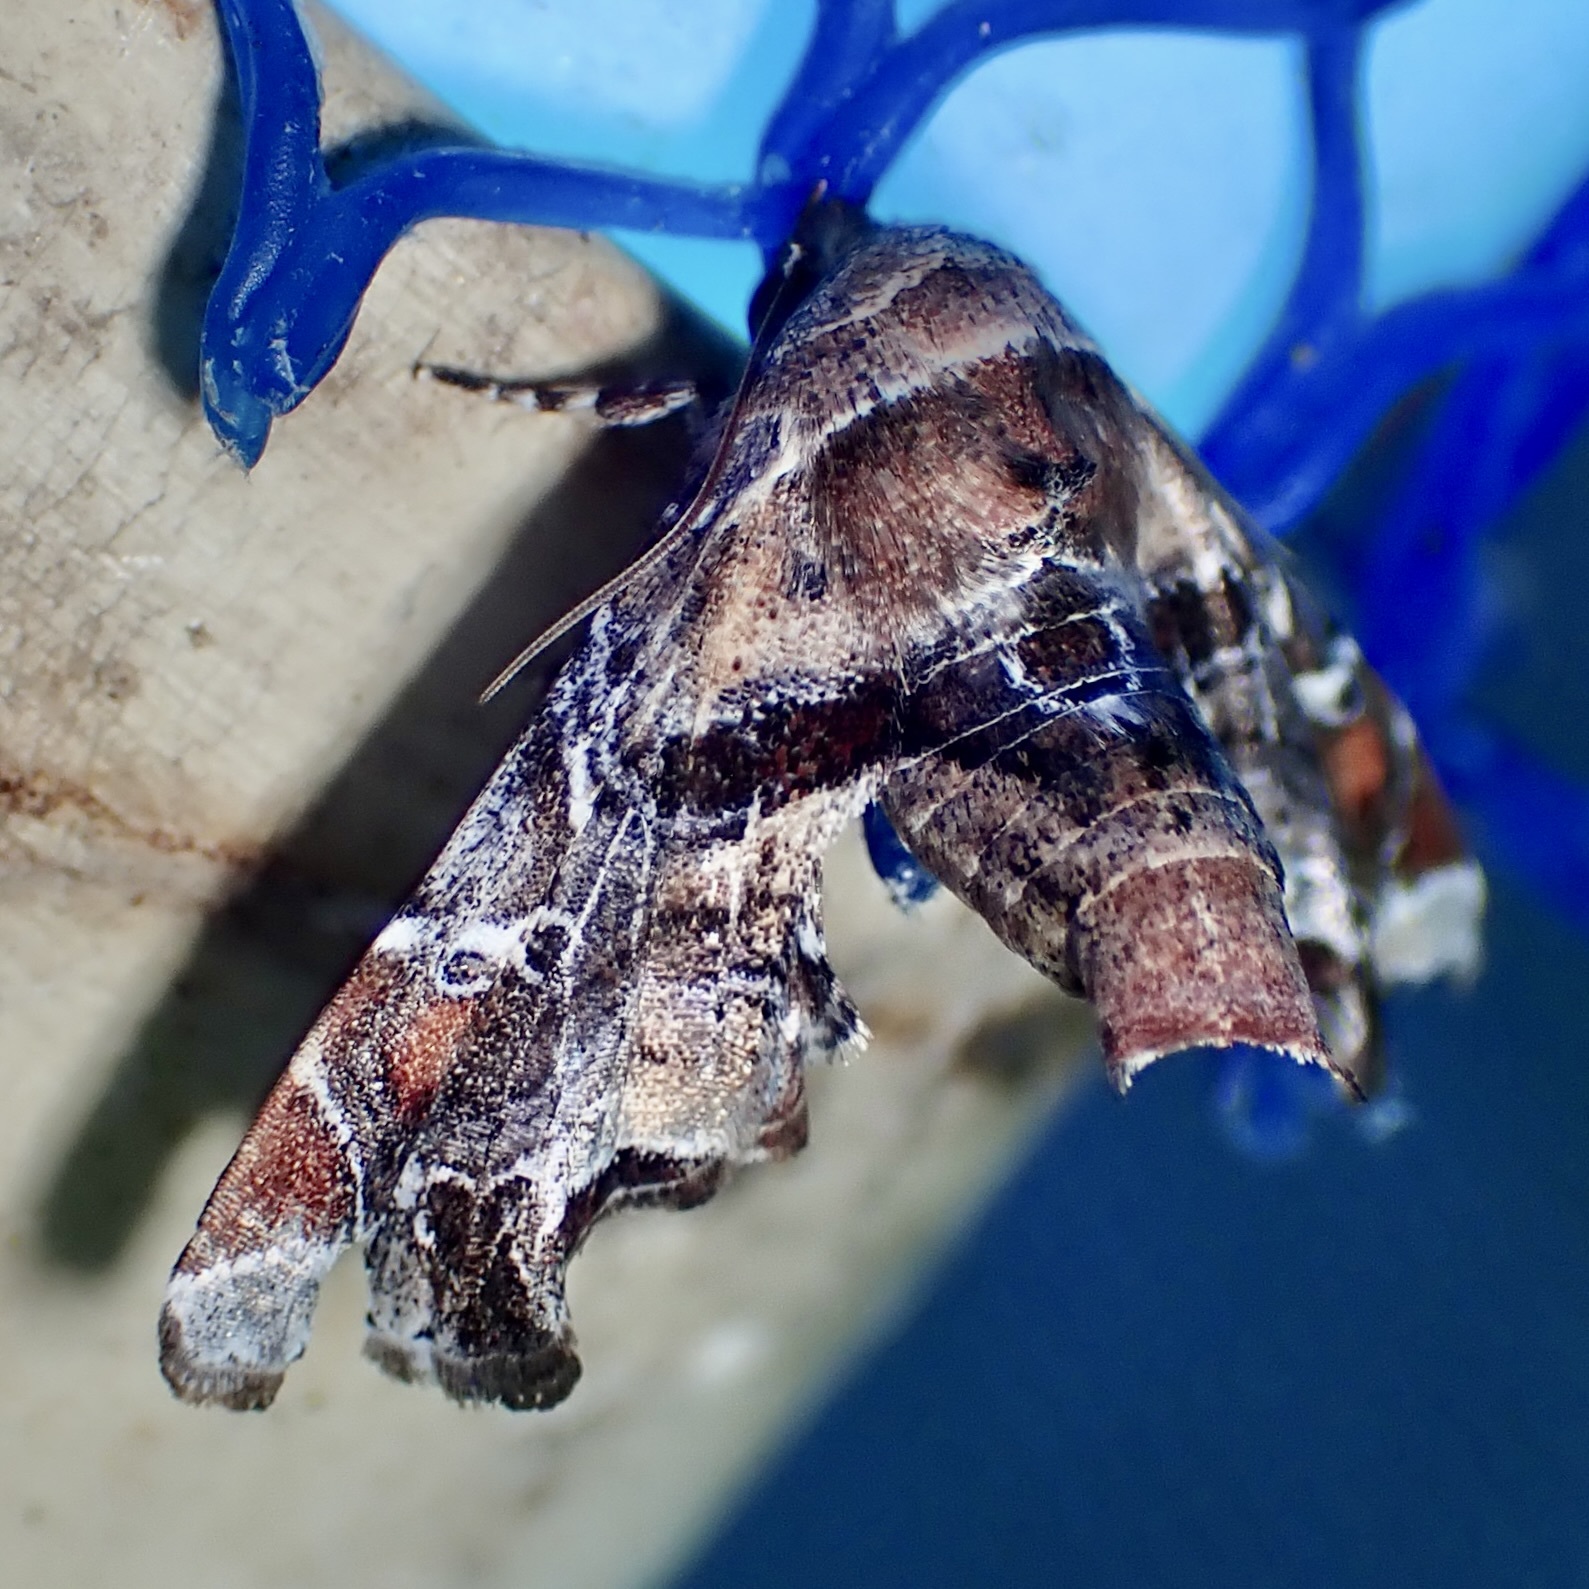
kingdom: Animalia
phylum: Arthropoda
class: Insecta
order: Lepidoptera
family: Euteliidae
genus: Eutelia
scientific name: Eutelia furcata
